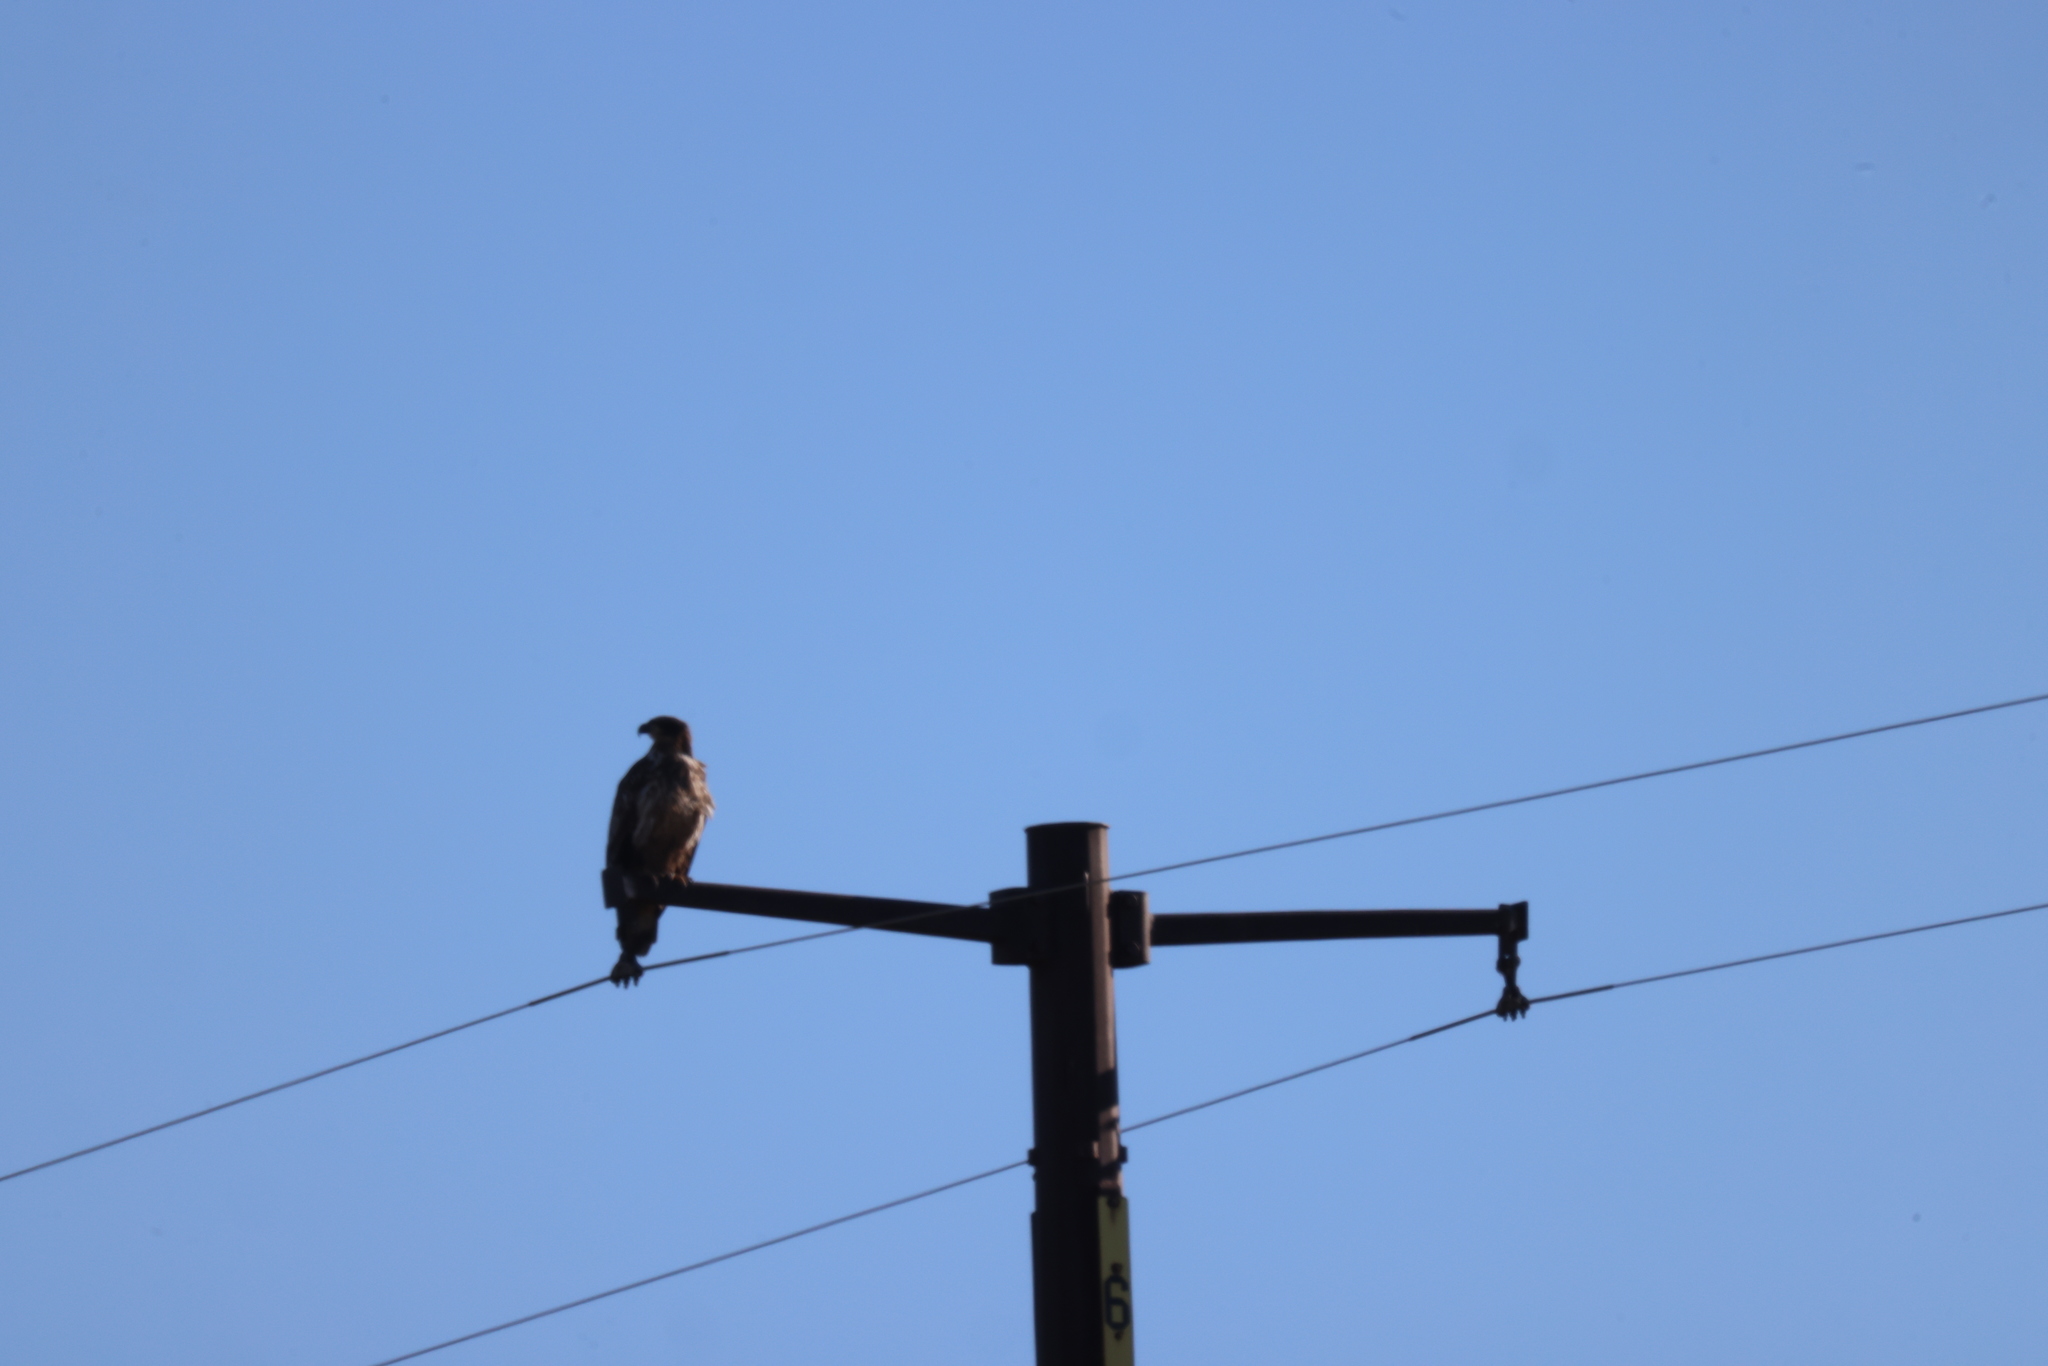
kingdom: Animalia
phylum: Chordata
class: Aves
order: Accipitriformes
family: Accipitridae
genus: Haliaeetus
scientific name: Haliaeetus leucocephalus
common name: Bald eagle
